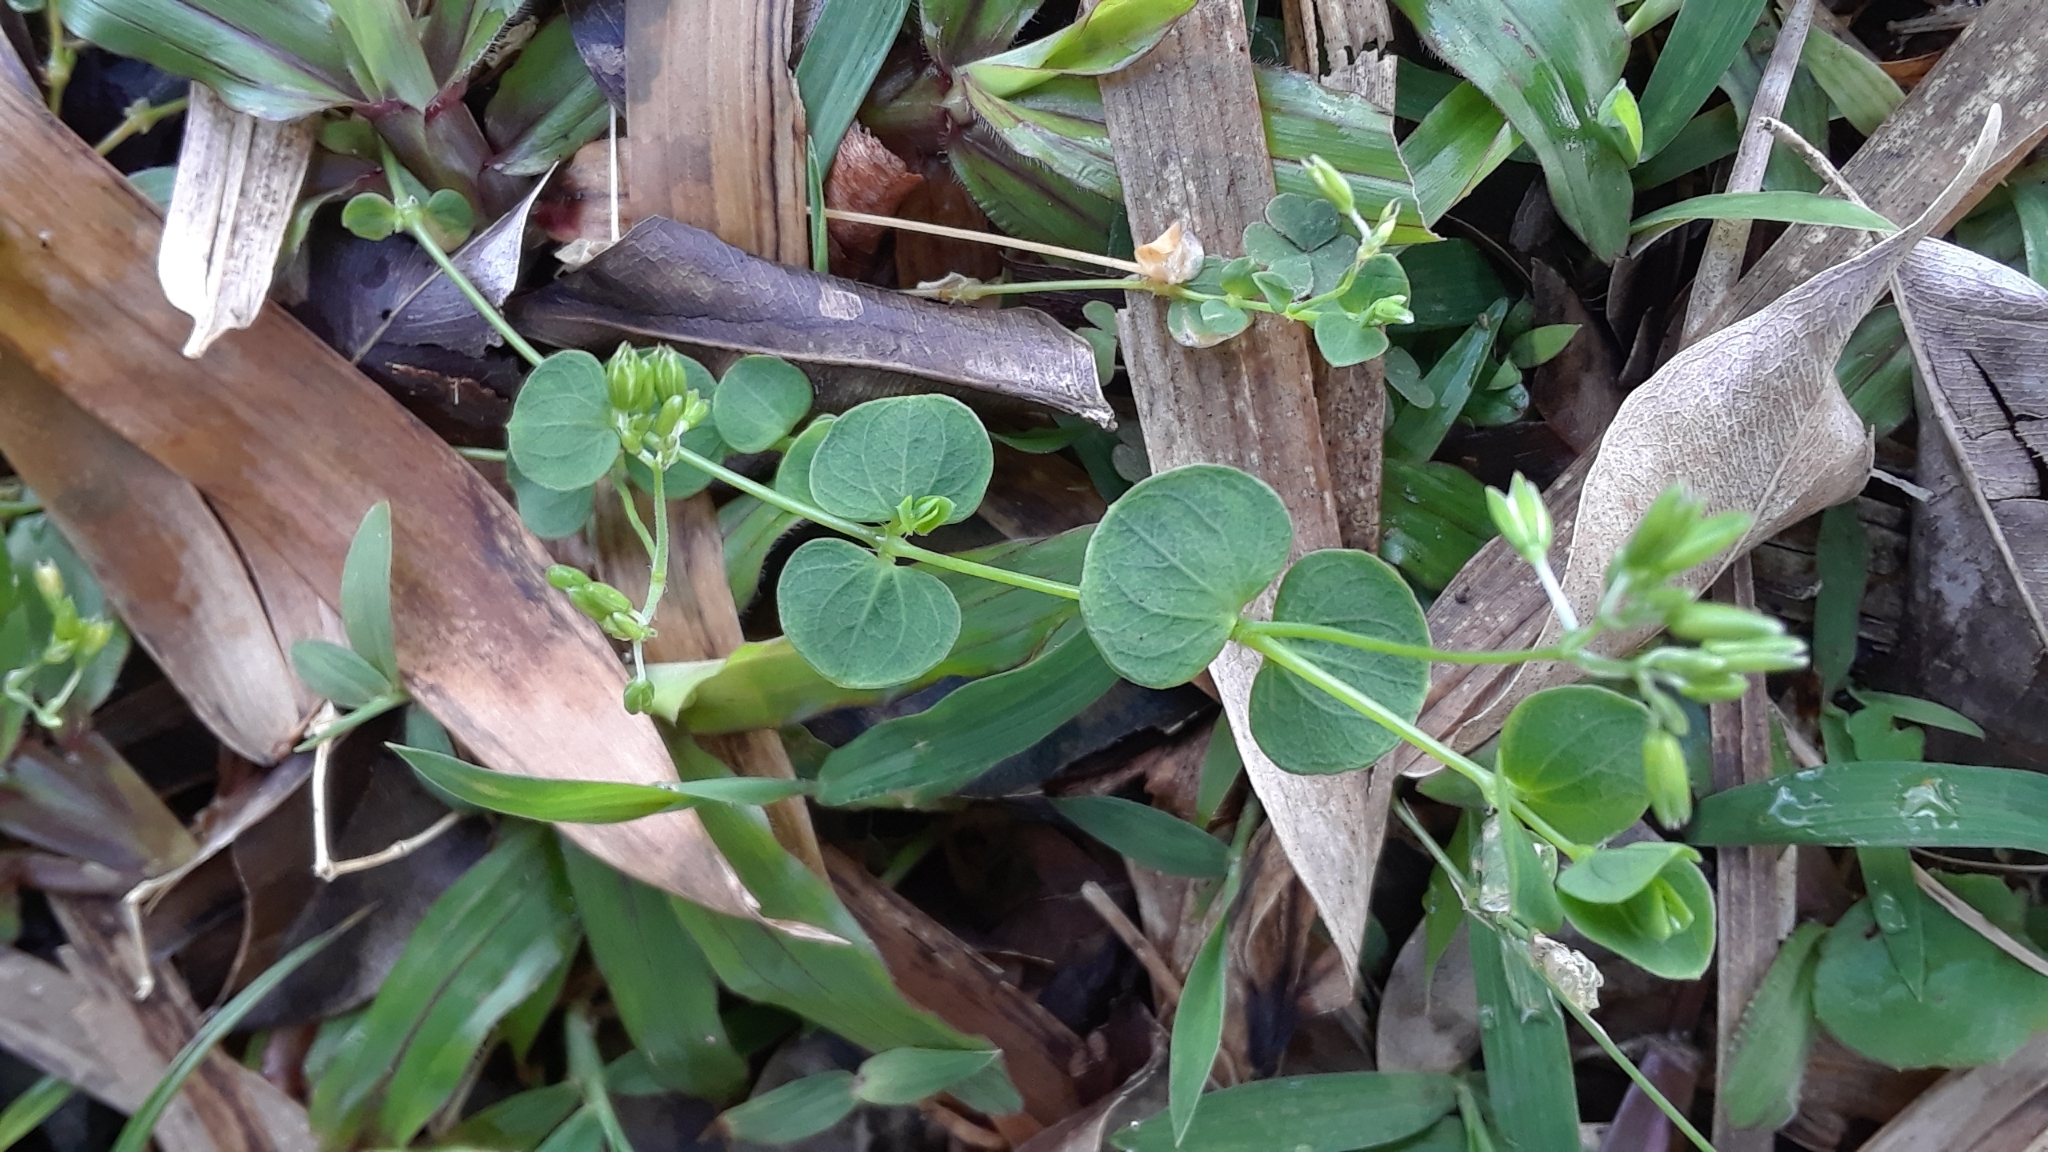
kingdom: Plantae
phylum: Tracheophyta
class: Magnoliopsida
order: Caryophyllales
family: Caryophyllaceae
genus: Drymaria
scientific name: Drymaria cordata
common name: Whitesnow
